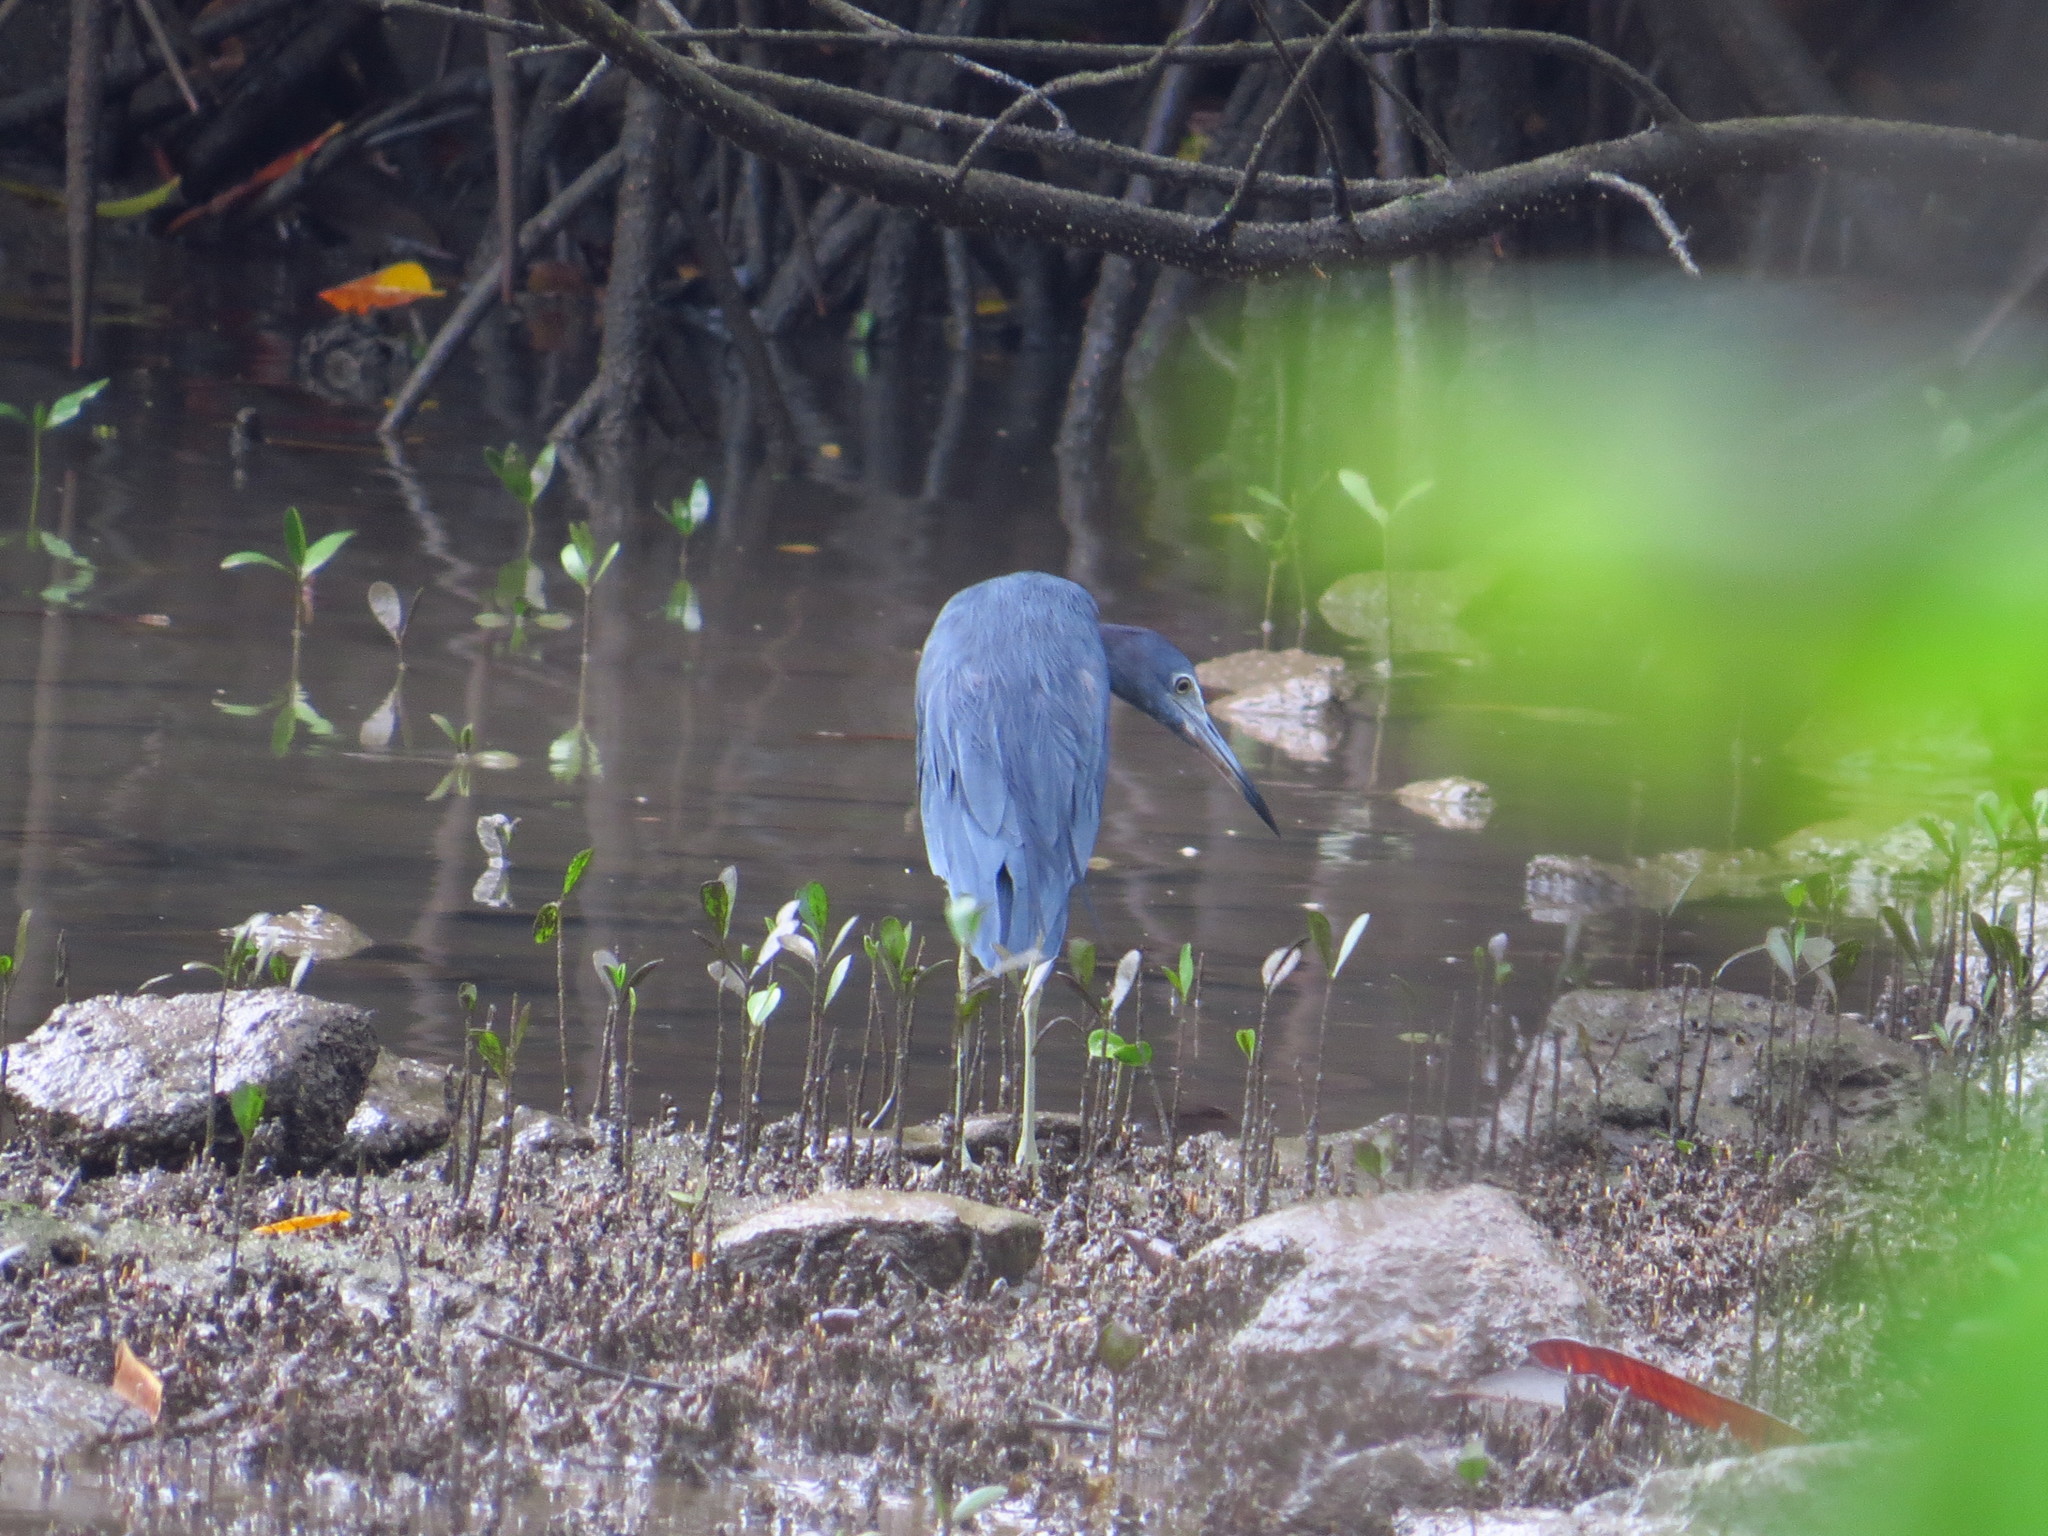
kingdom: Animalia
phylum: Chordata
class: Aves
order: Pelecaniformes
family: Ardeidae
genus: Egretta
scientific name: Egretta caerulea
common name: Little blue heron
